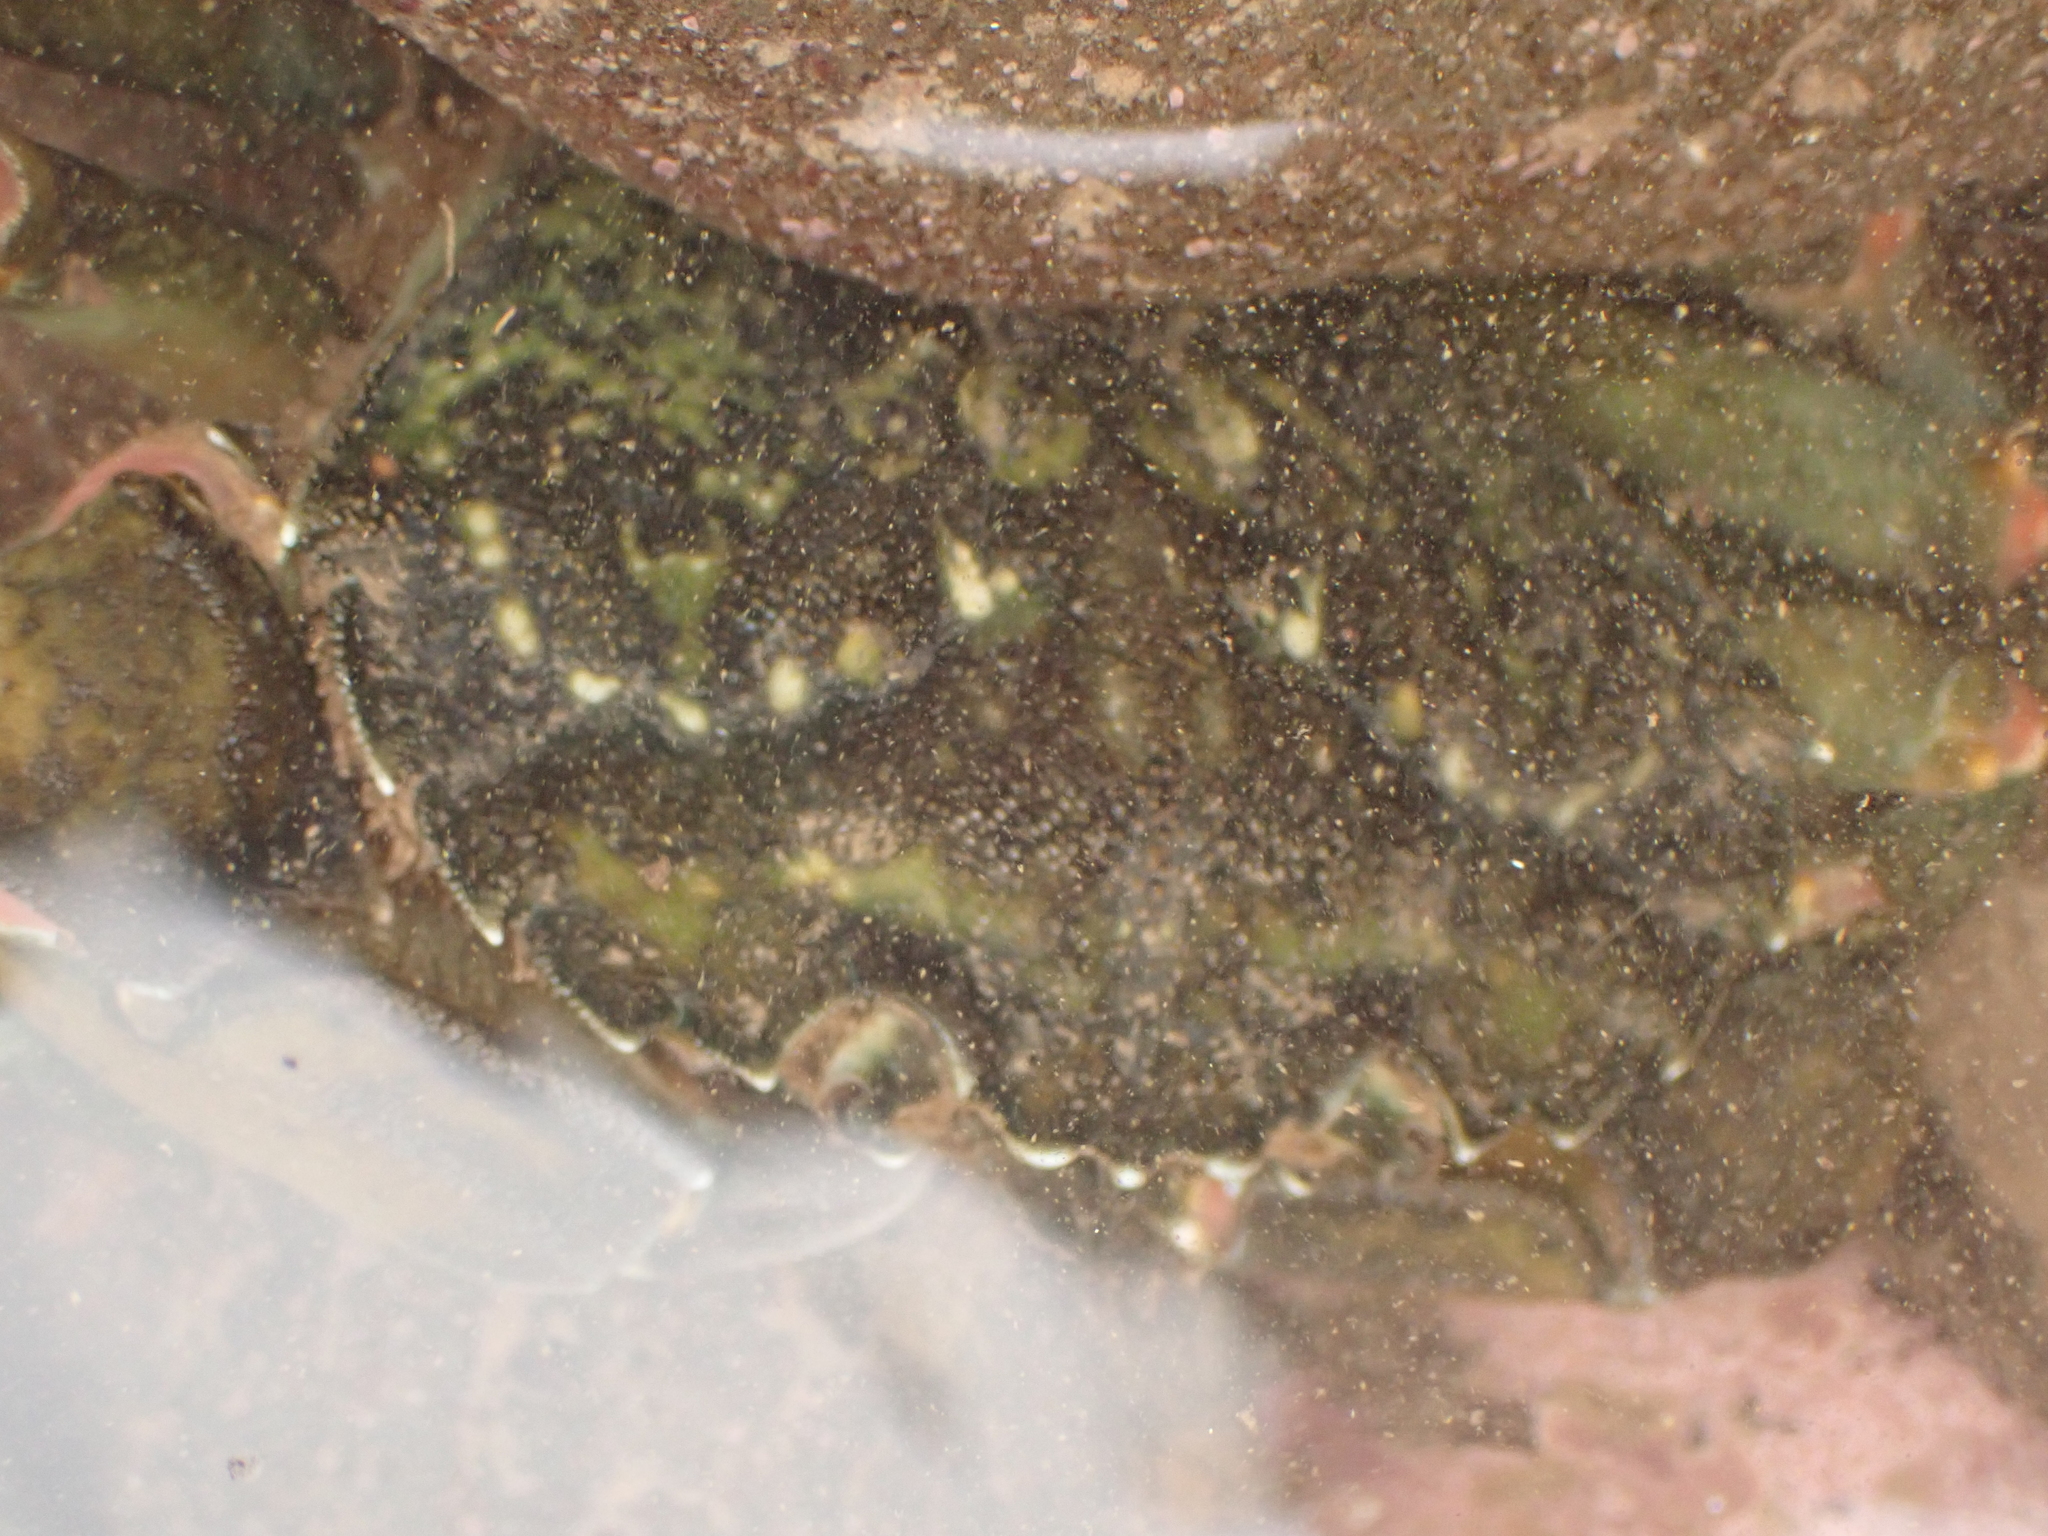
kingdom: Animalia
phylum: Arthropoda
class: Malacostraca
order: Decapoda
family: Carcinidae
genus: Carcinus
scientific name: Carcinus maenas
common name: European green crab
